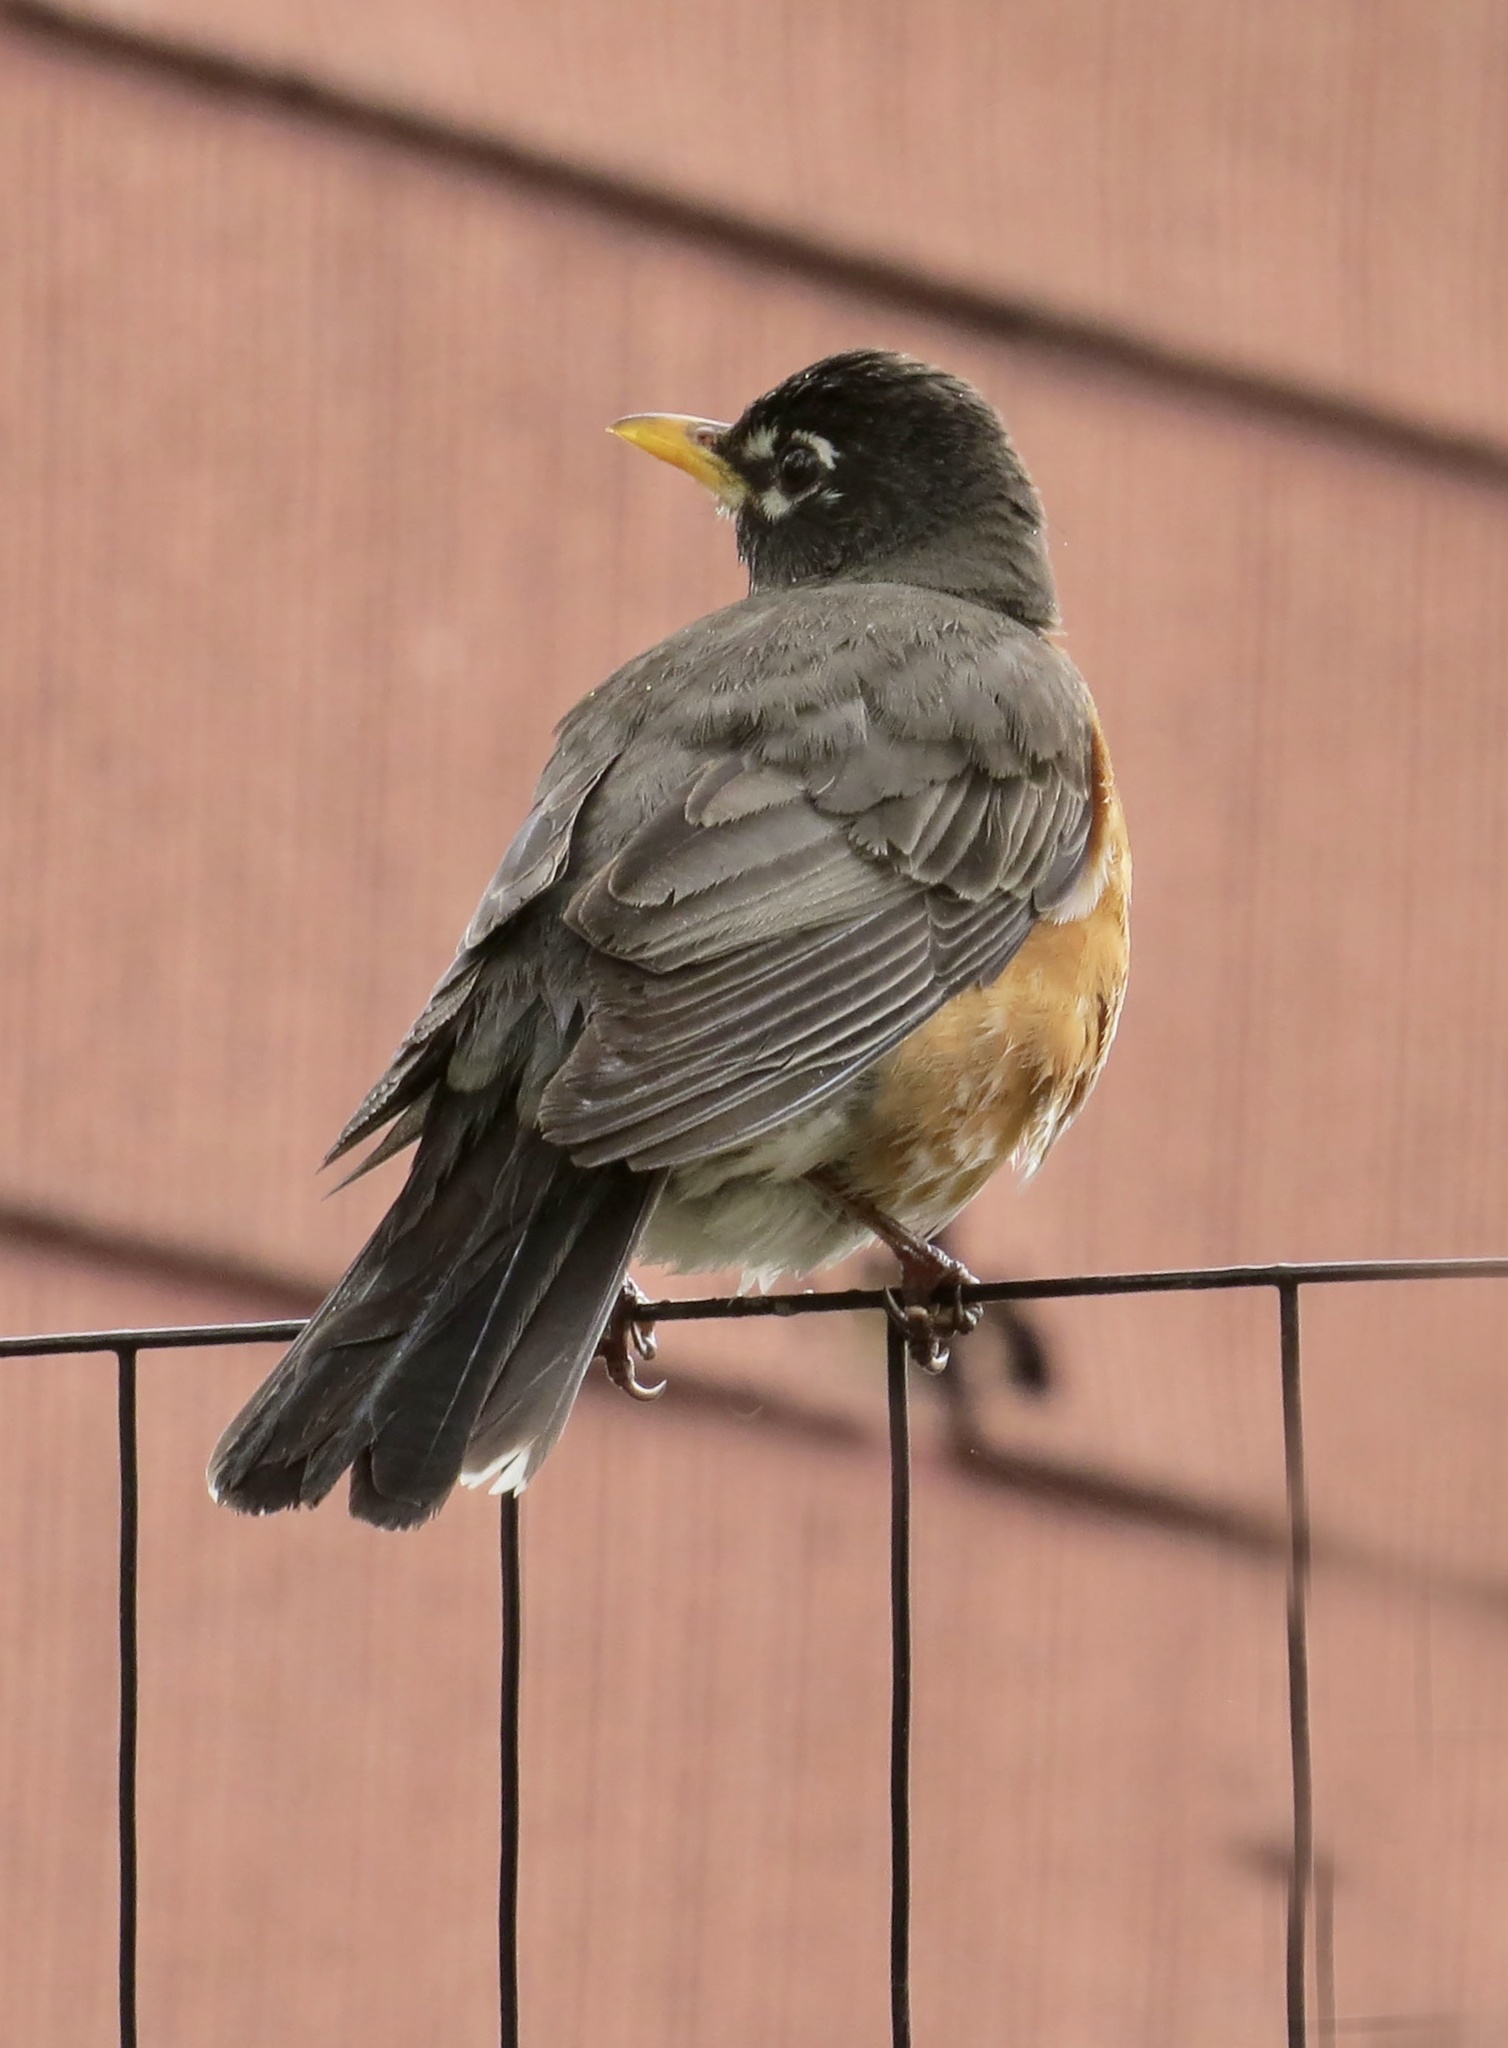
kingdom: Animalia
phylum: Chordata
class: Aves
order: Passeriformes
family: Turdidae
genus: Turdus
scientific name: Turdus migratorius
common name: American robin
